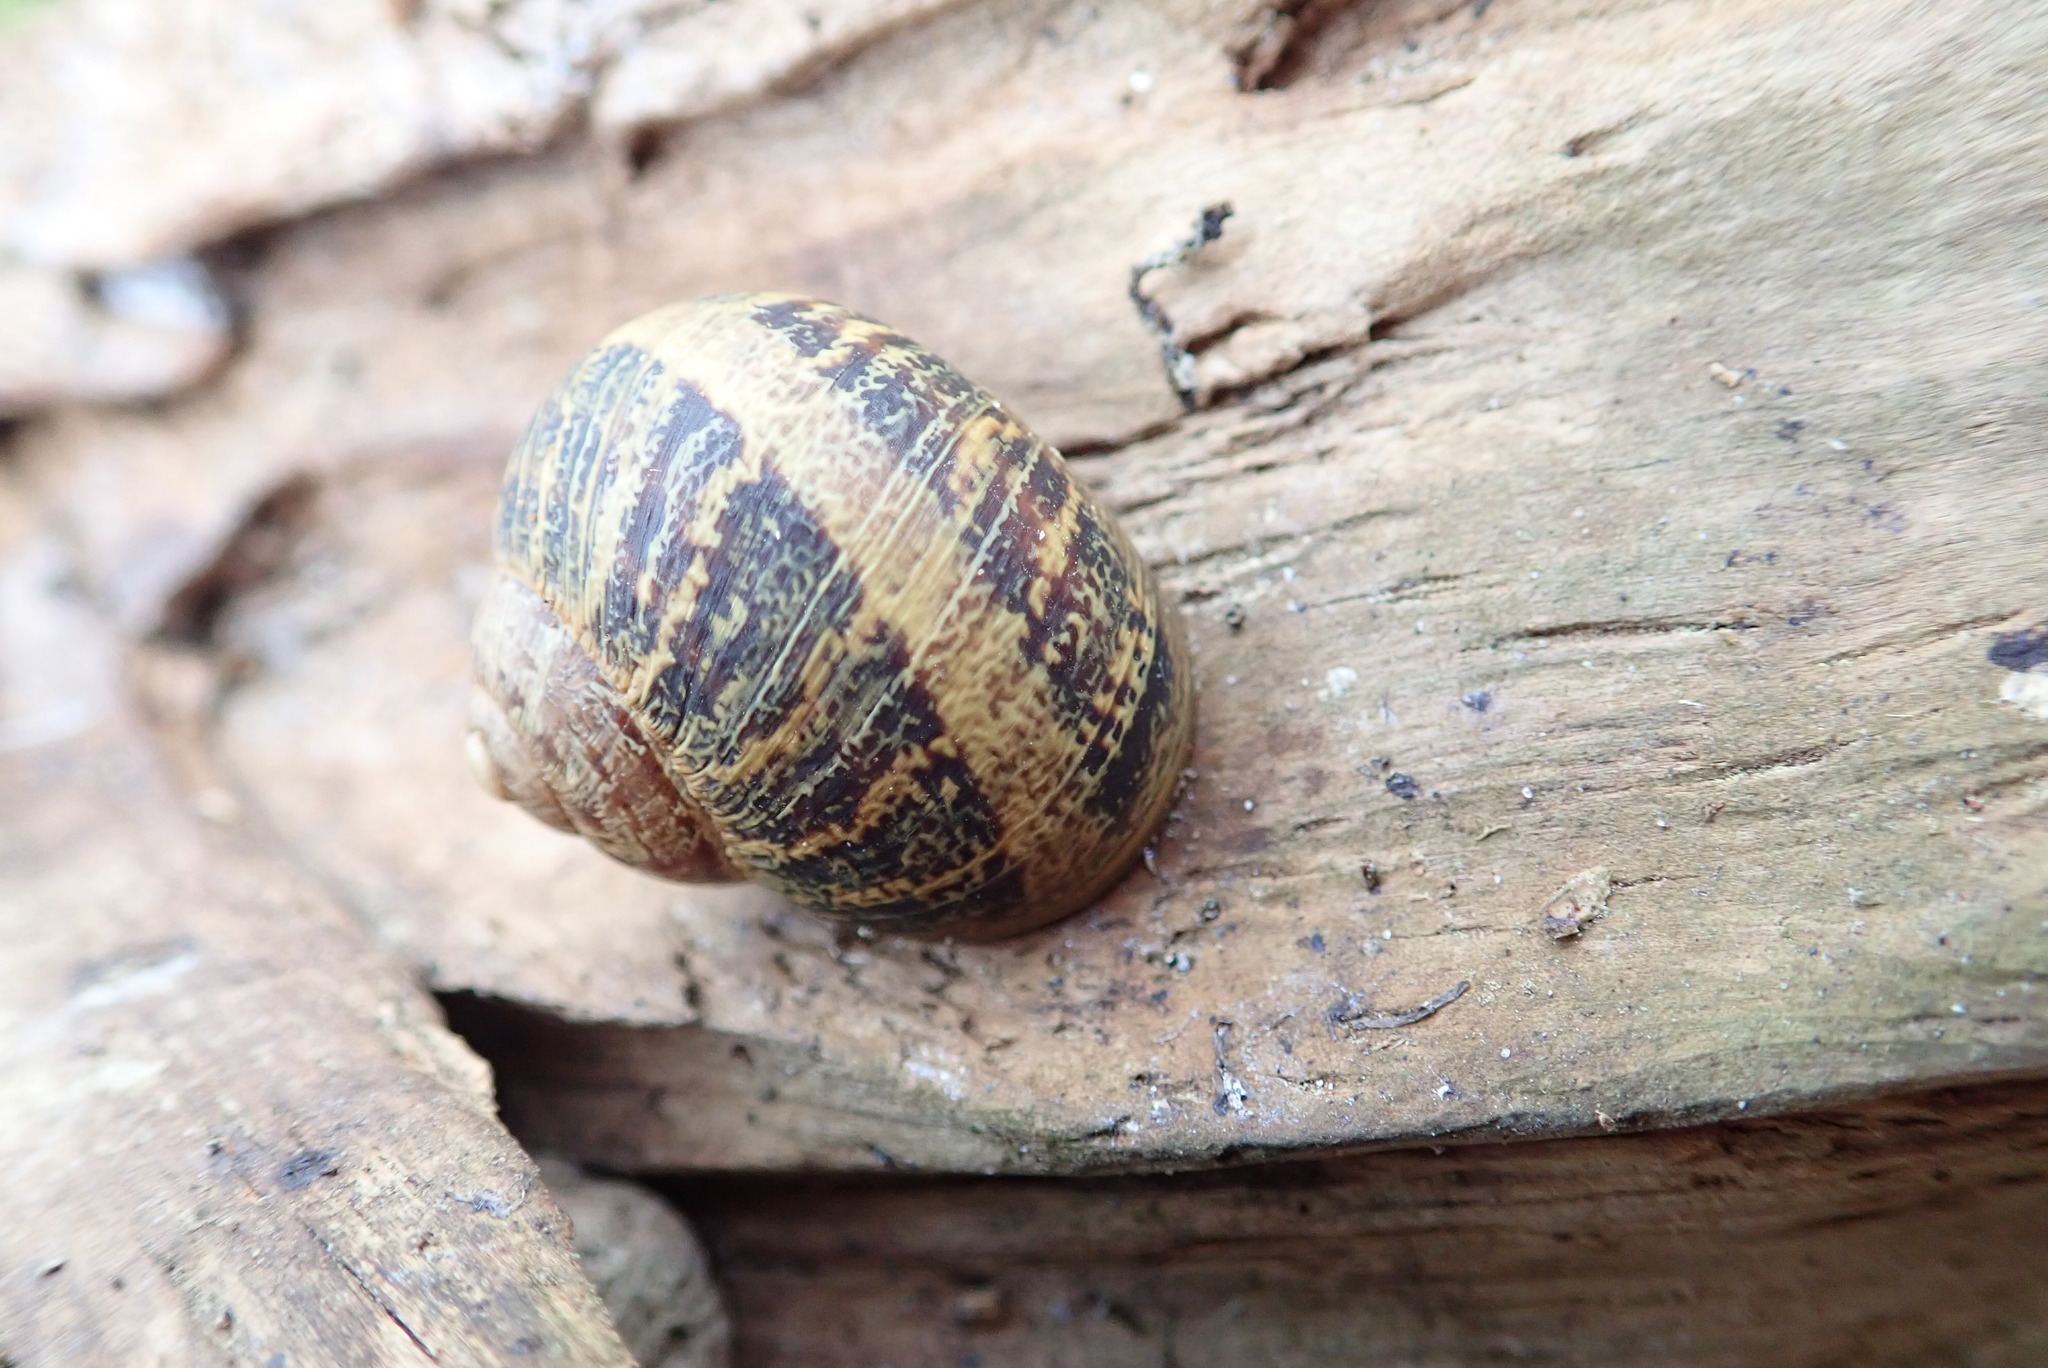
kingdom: Animalia
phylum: Mollusca
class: Gastropoda
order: Stylommatophora
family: Helicidae
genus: Cornu
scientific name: Cornu aspersum
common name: Brown garden snail
